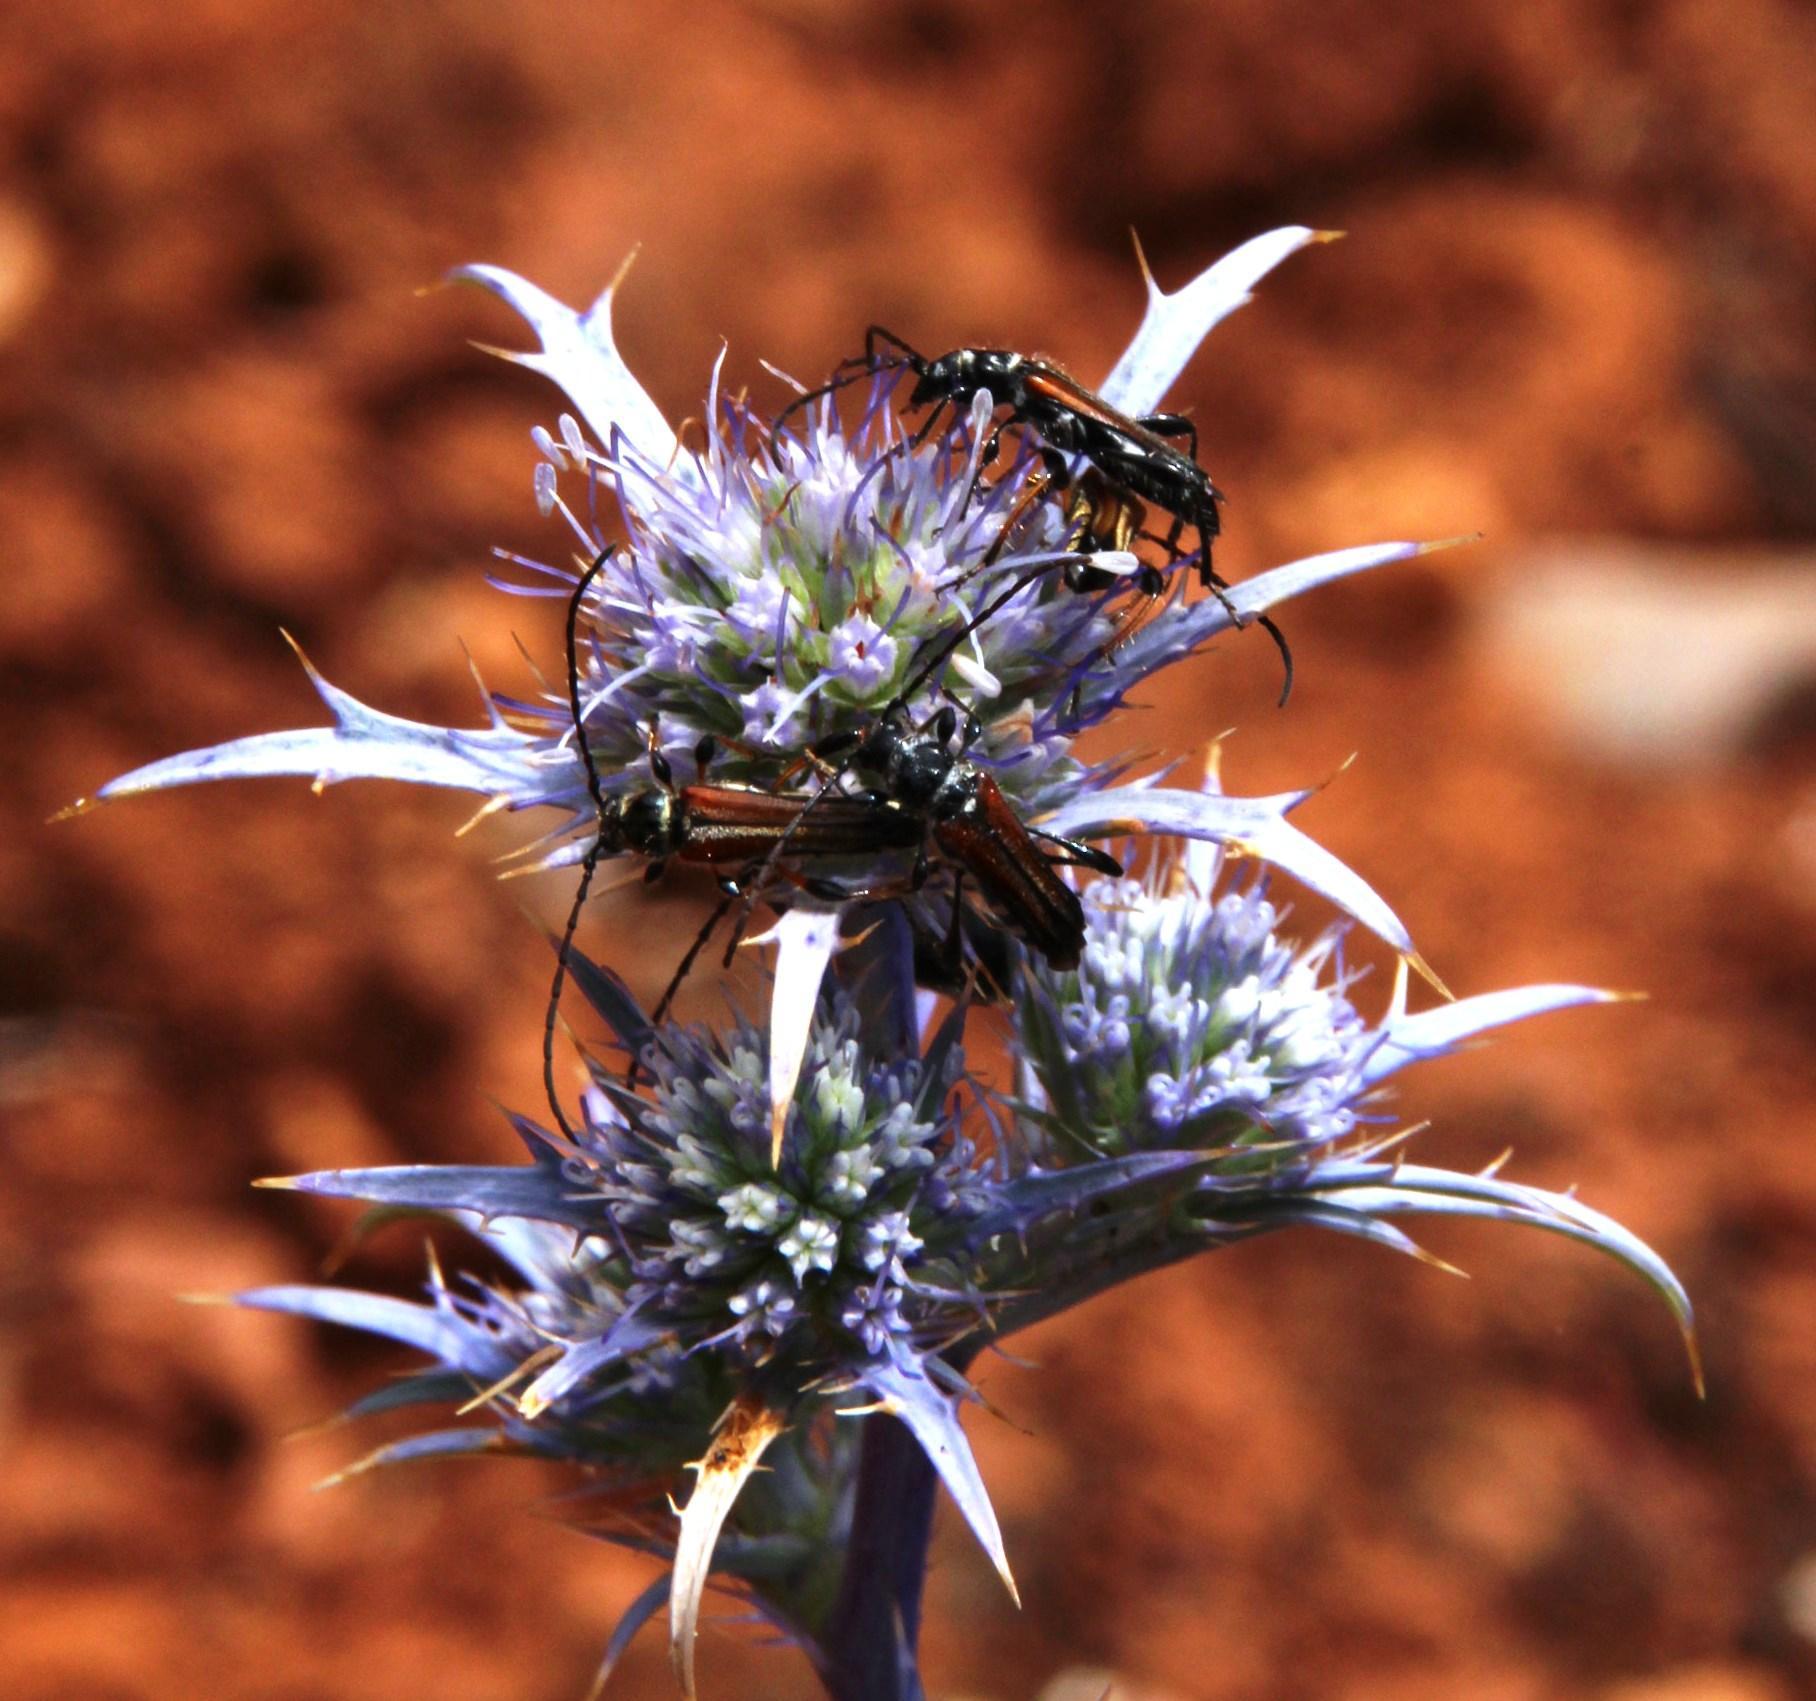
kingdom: Plantae
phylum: Tracheophyta
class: Magnoliopsida
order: Apiales
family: Apiaceae
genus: Eryngium
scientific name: Eryngium dilatatum
